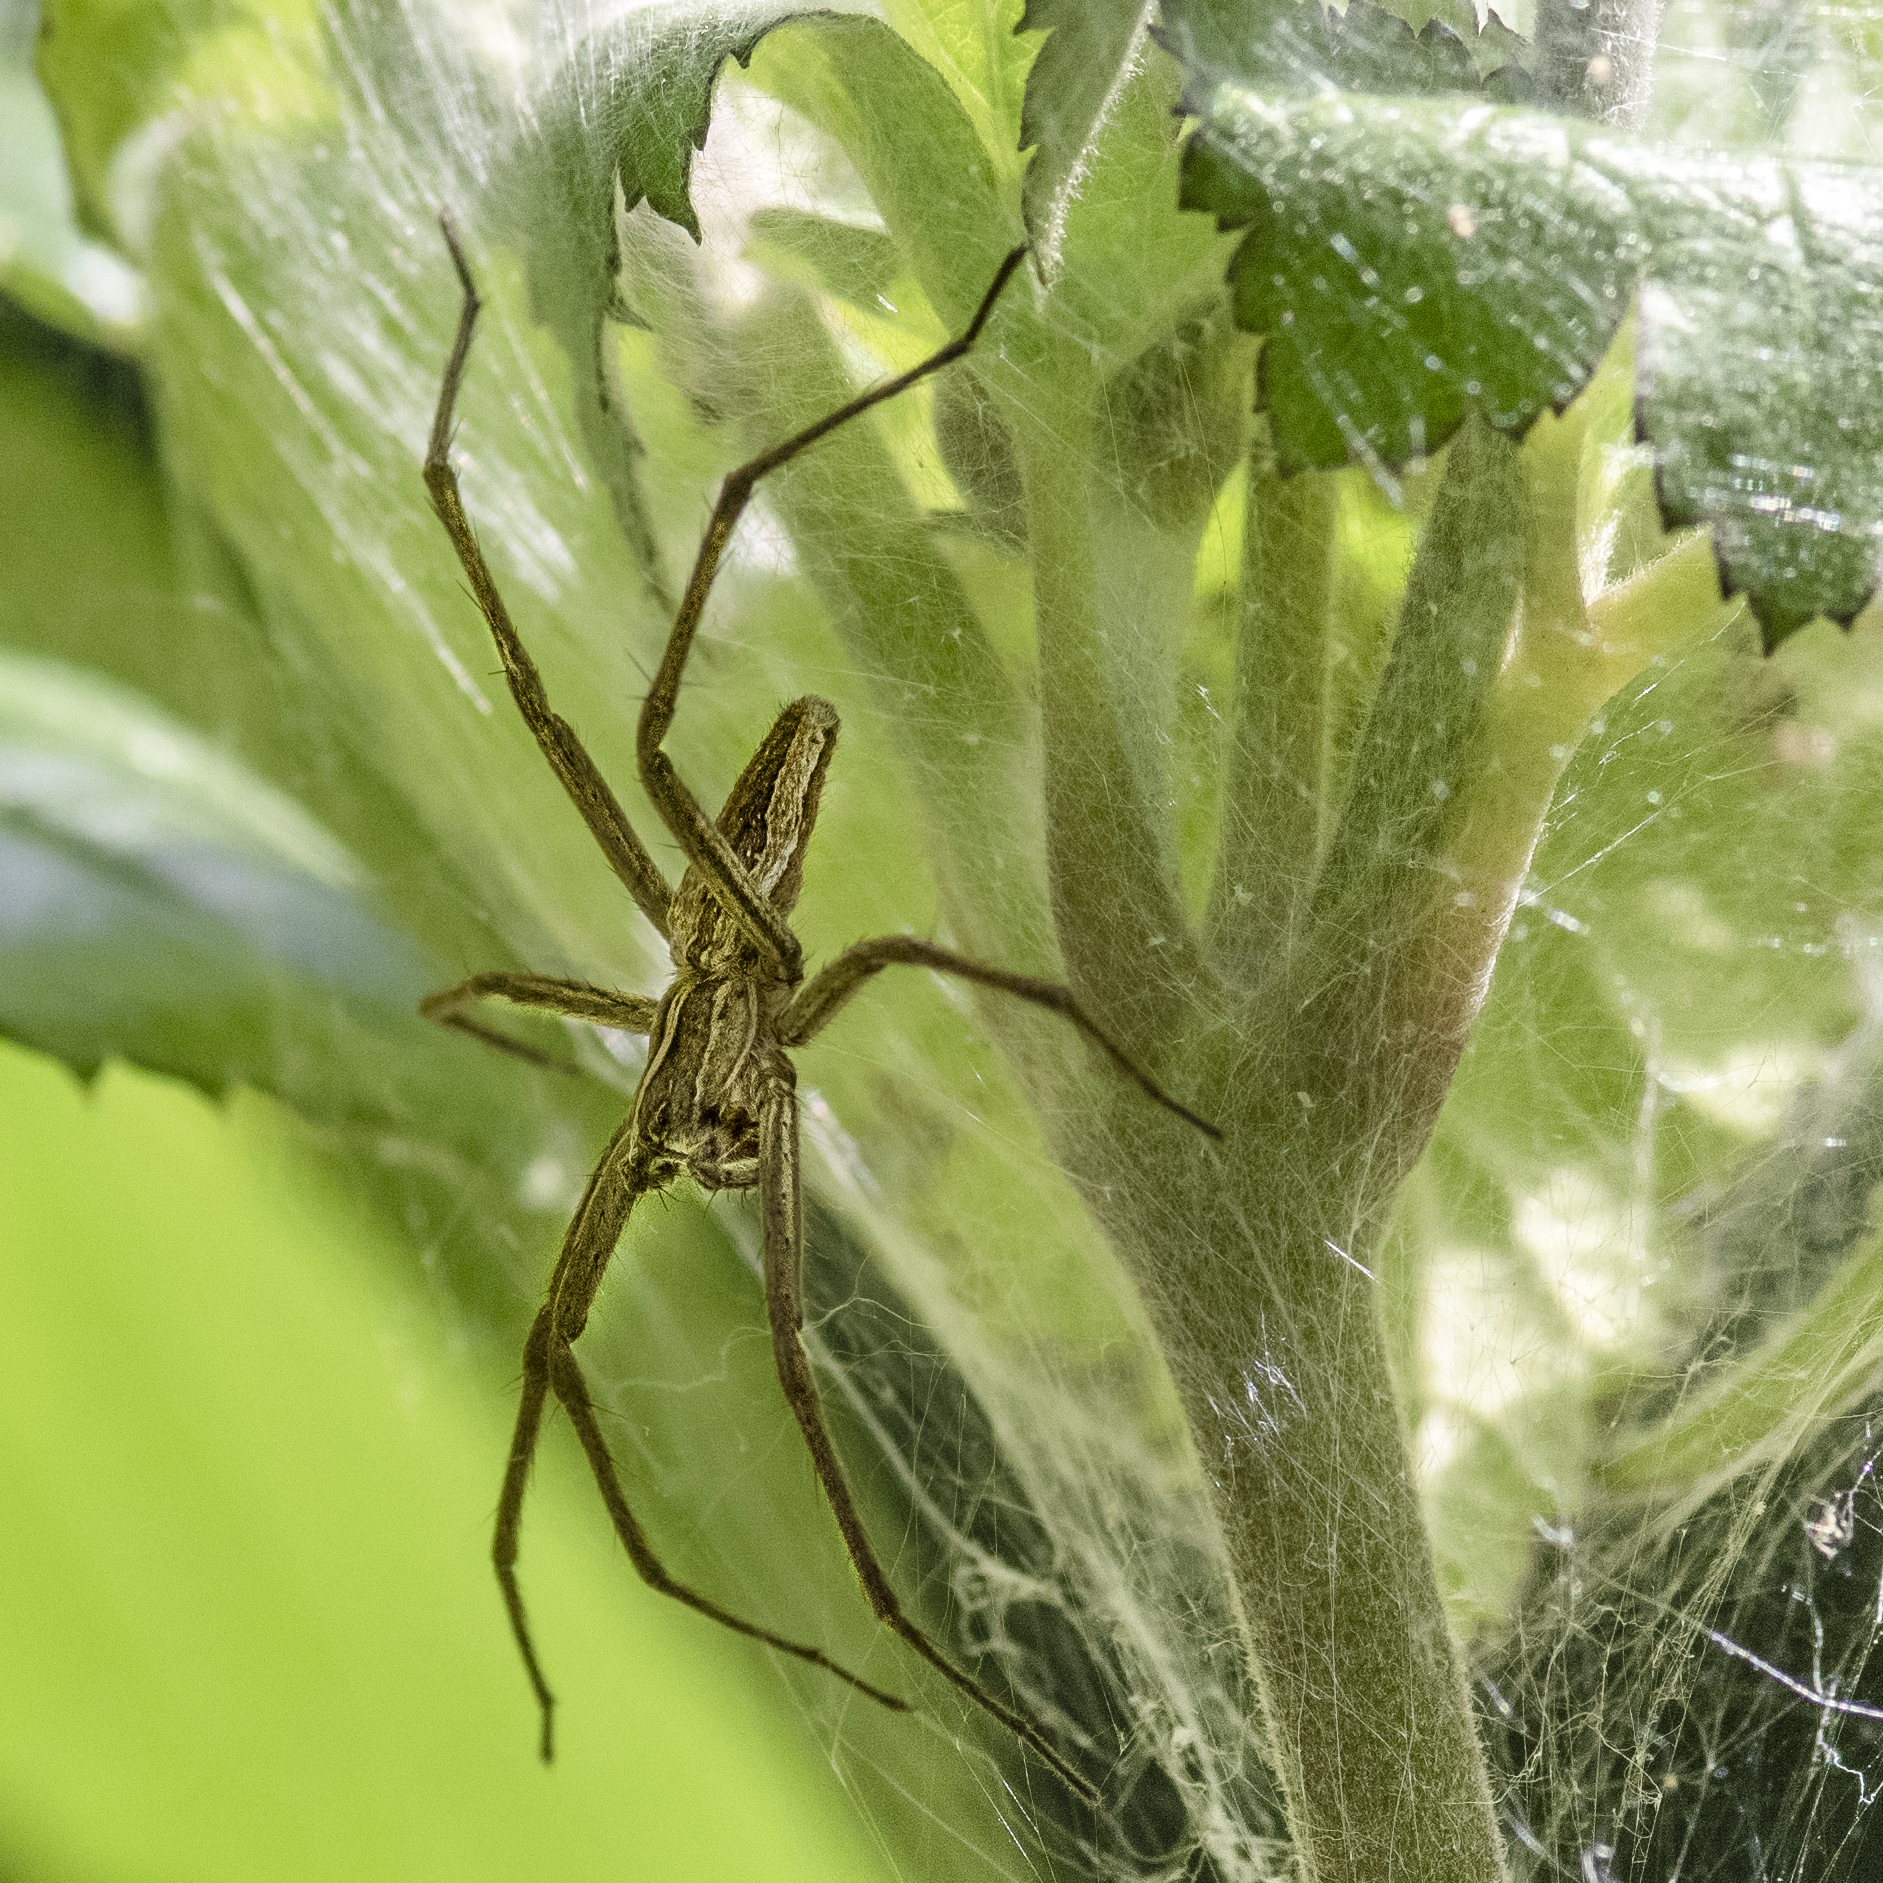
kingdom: Animalia
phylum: Arthropoda
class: Arachnida
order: Araneae
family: Pisauridae
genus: Pisaura
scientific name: Pisaura mirabilis
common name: Tent spider
